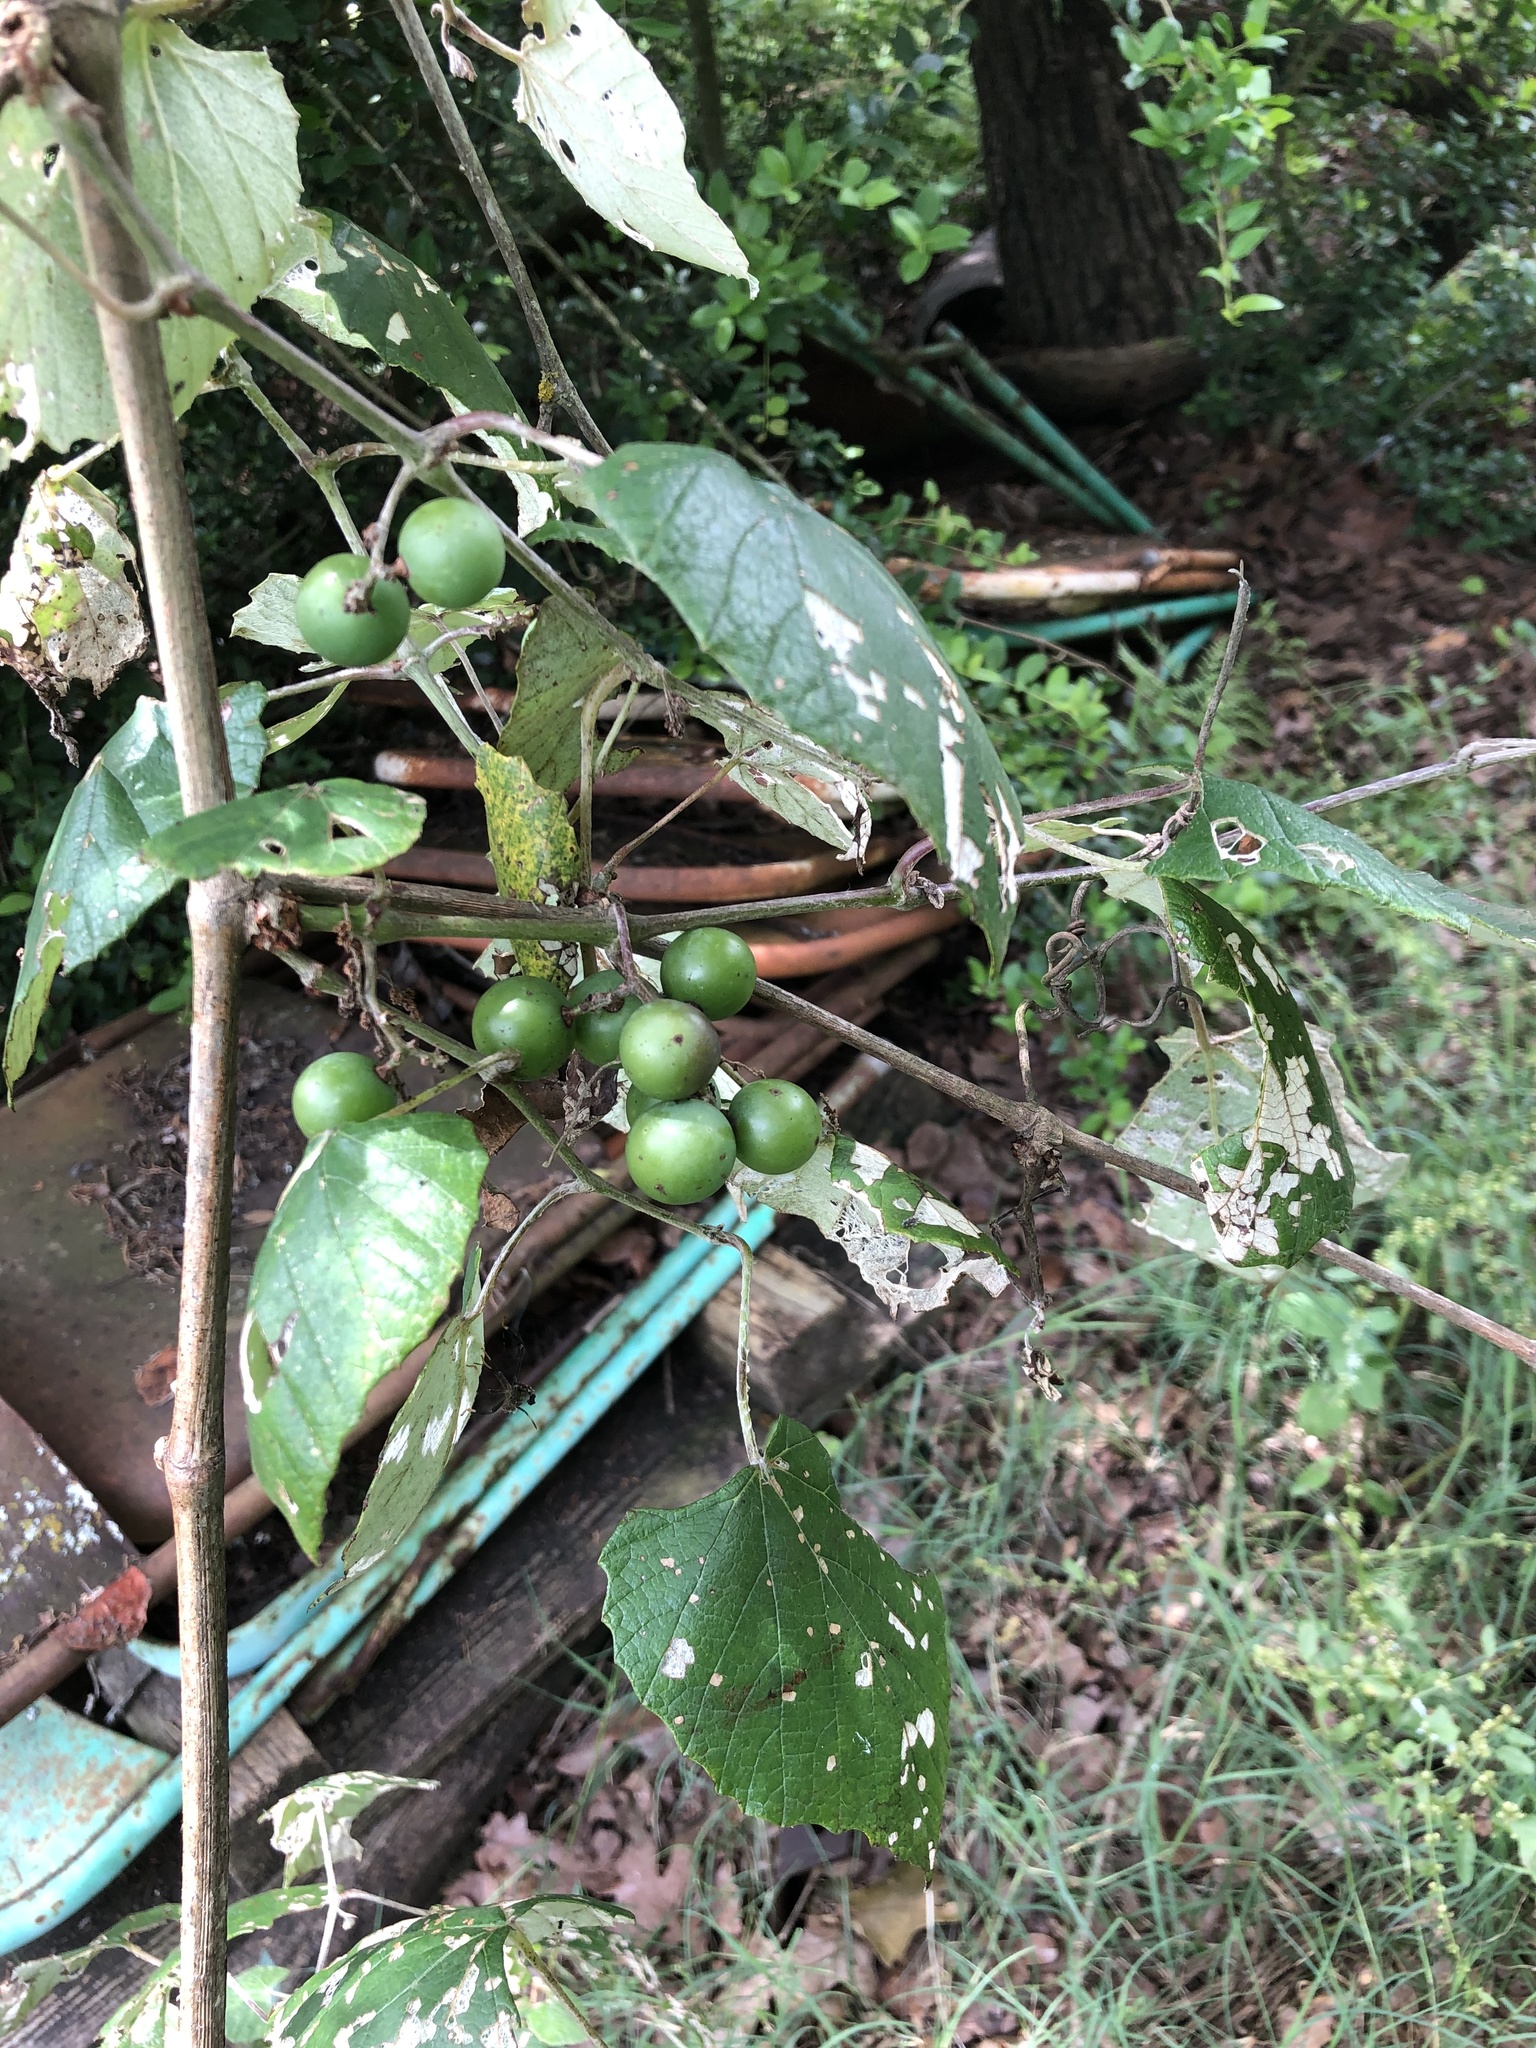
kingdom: Plantae
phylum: Tracheophyta
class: Magnoliopsida
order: Vitales
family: Vitaceae
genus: Vitis
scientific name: Vitis mustangensis
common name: Mustang grape
